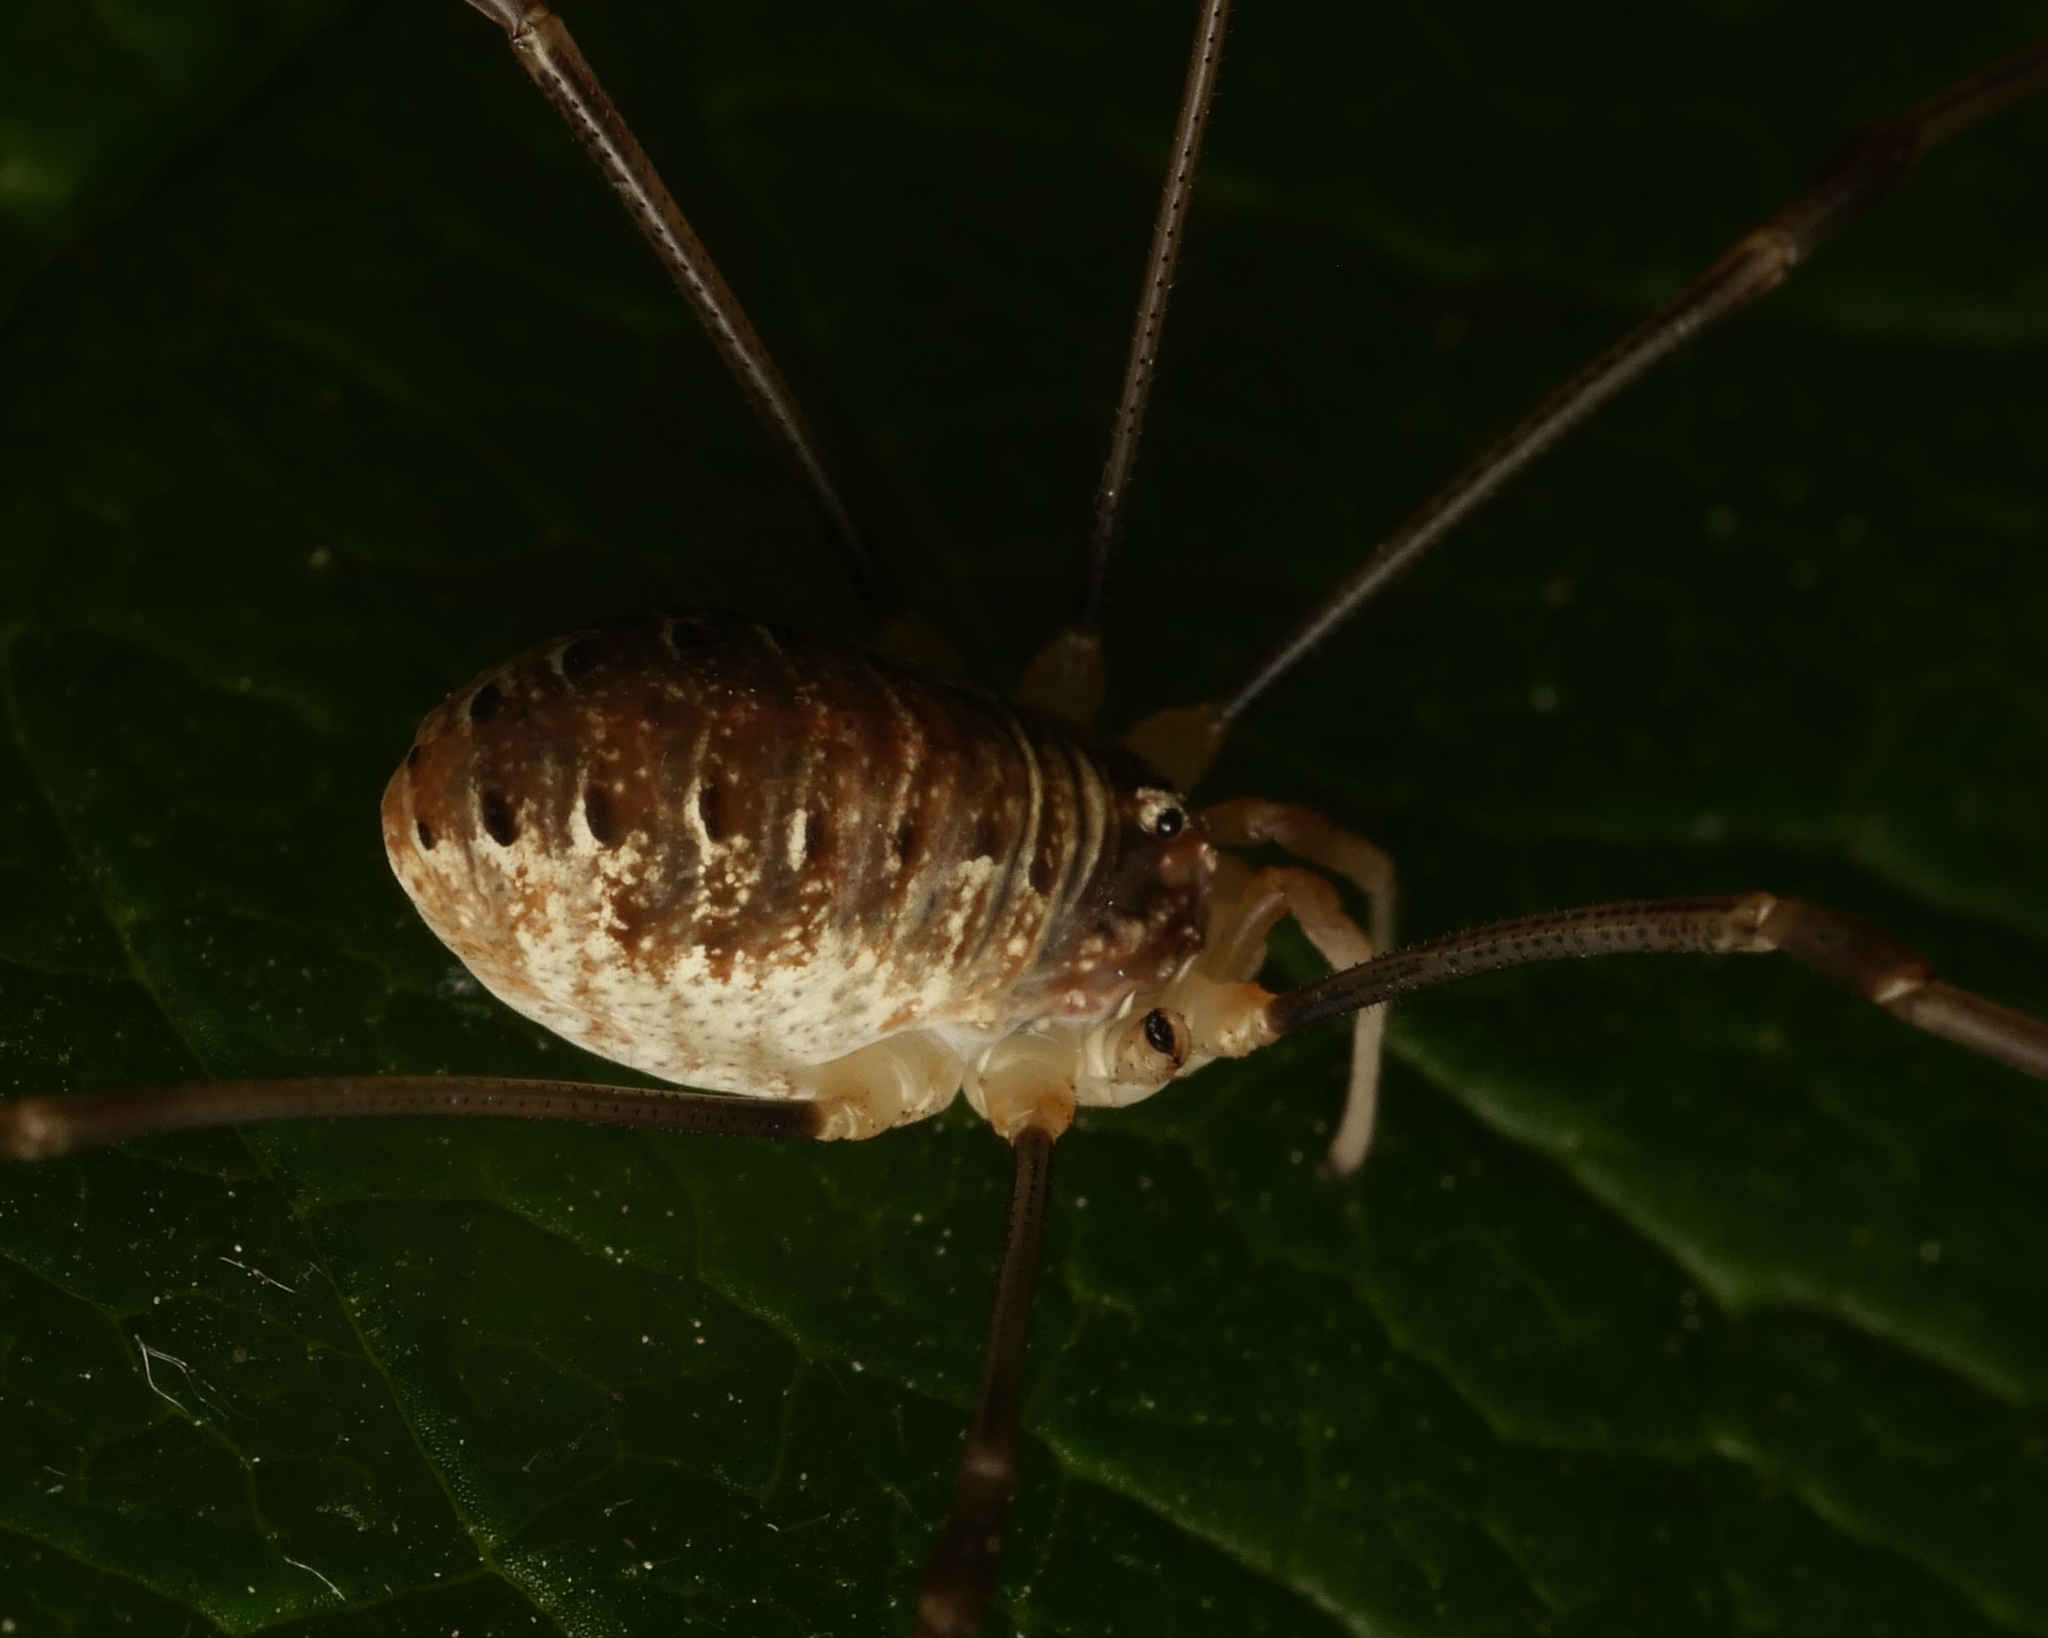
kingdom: Animalia
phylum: Arthropoda
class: Arachnida
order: Opiliones
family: Phalangiidae
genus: Opilio
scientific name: Opilio canestrinii
